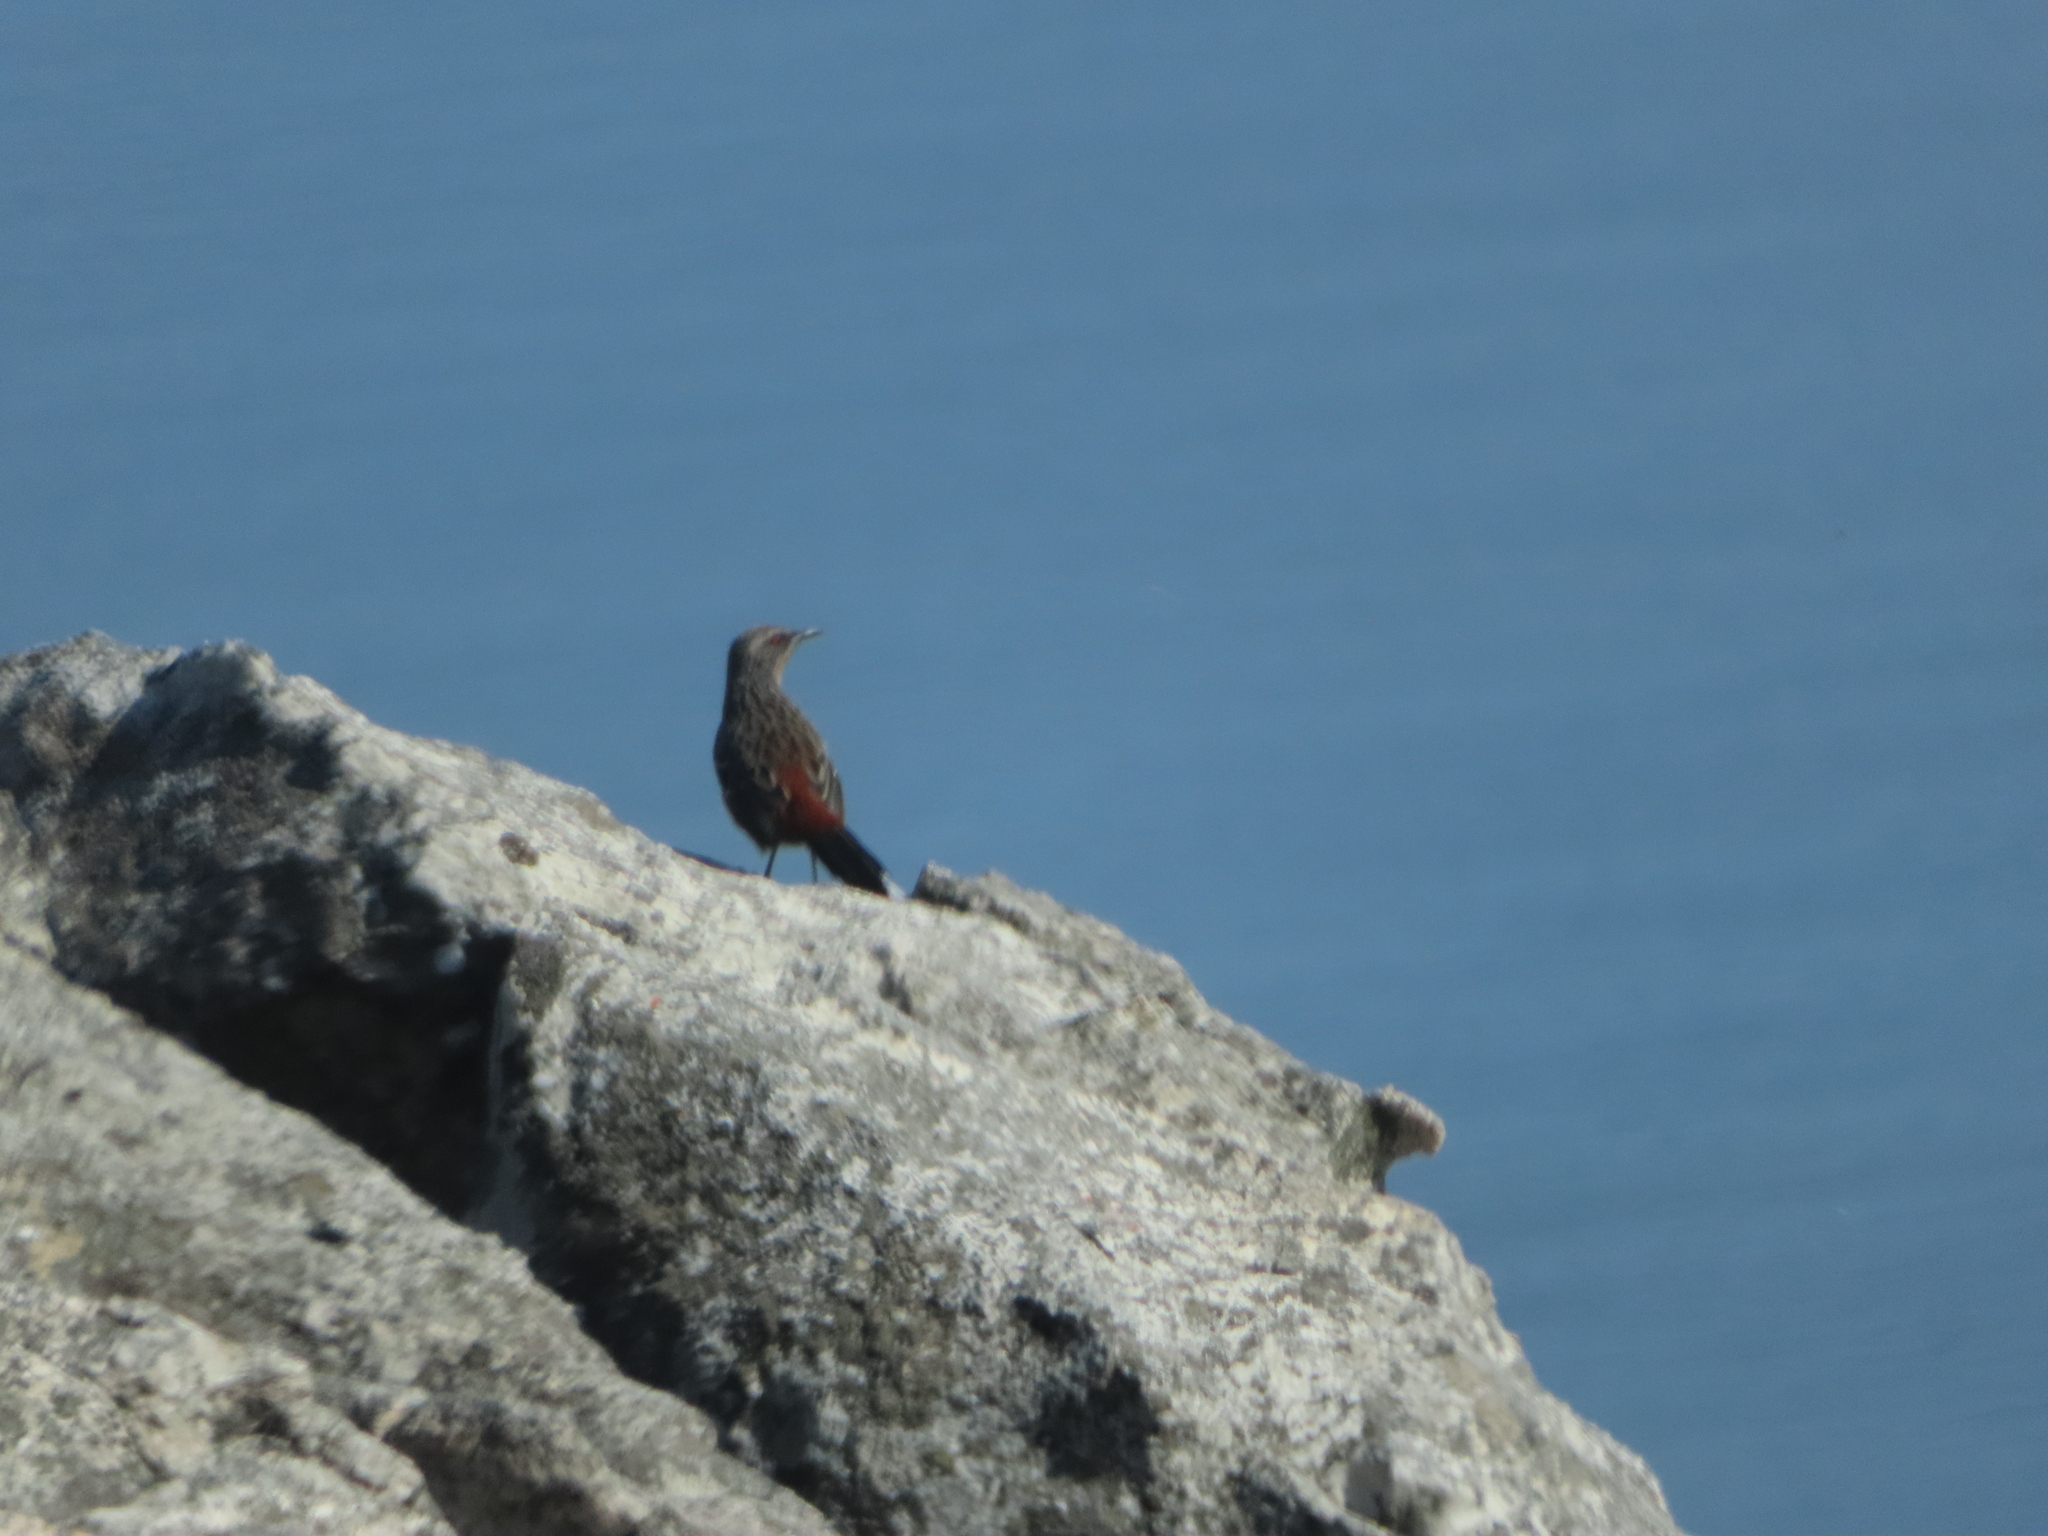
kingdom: Animalia
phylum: Chordata
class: Aves
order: Passeriformes
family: Chaetopidae
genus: Chaetops
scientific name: Chaetops frenatus
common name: Cape rockjumper
